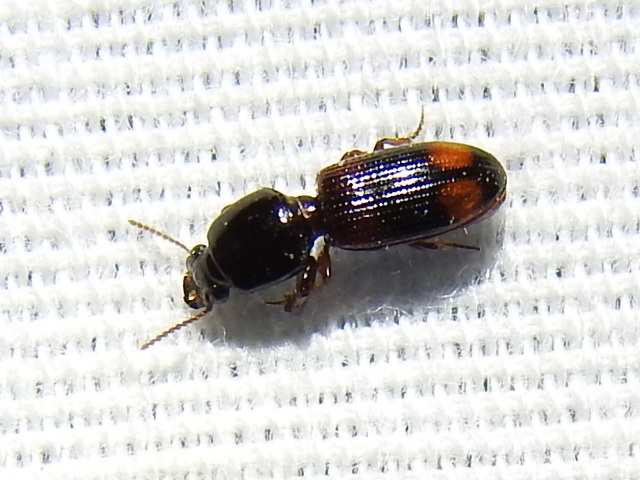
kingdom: Animalia
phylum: Arthropoda
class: Insecta
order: Coleoptera
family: Carabidae
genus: Clivina
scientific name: Clivina bipustulata
